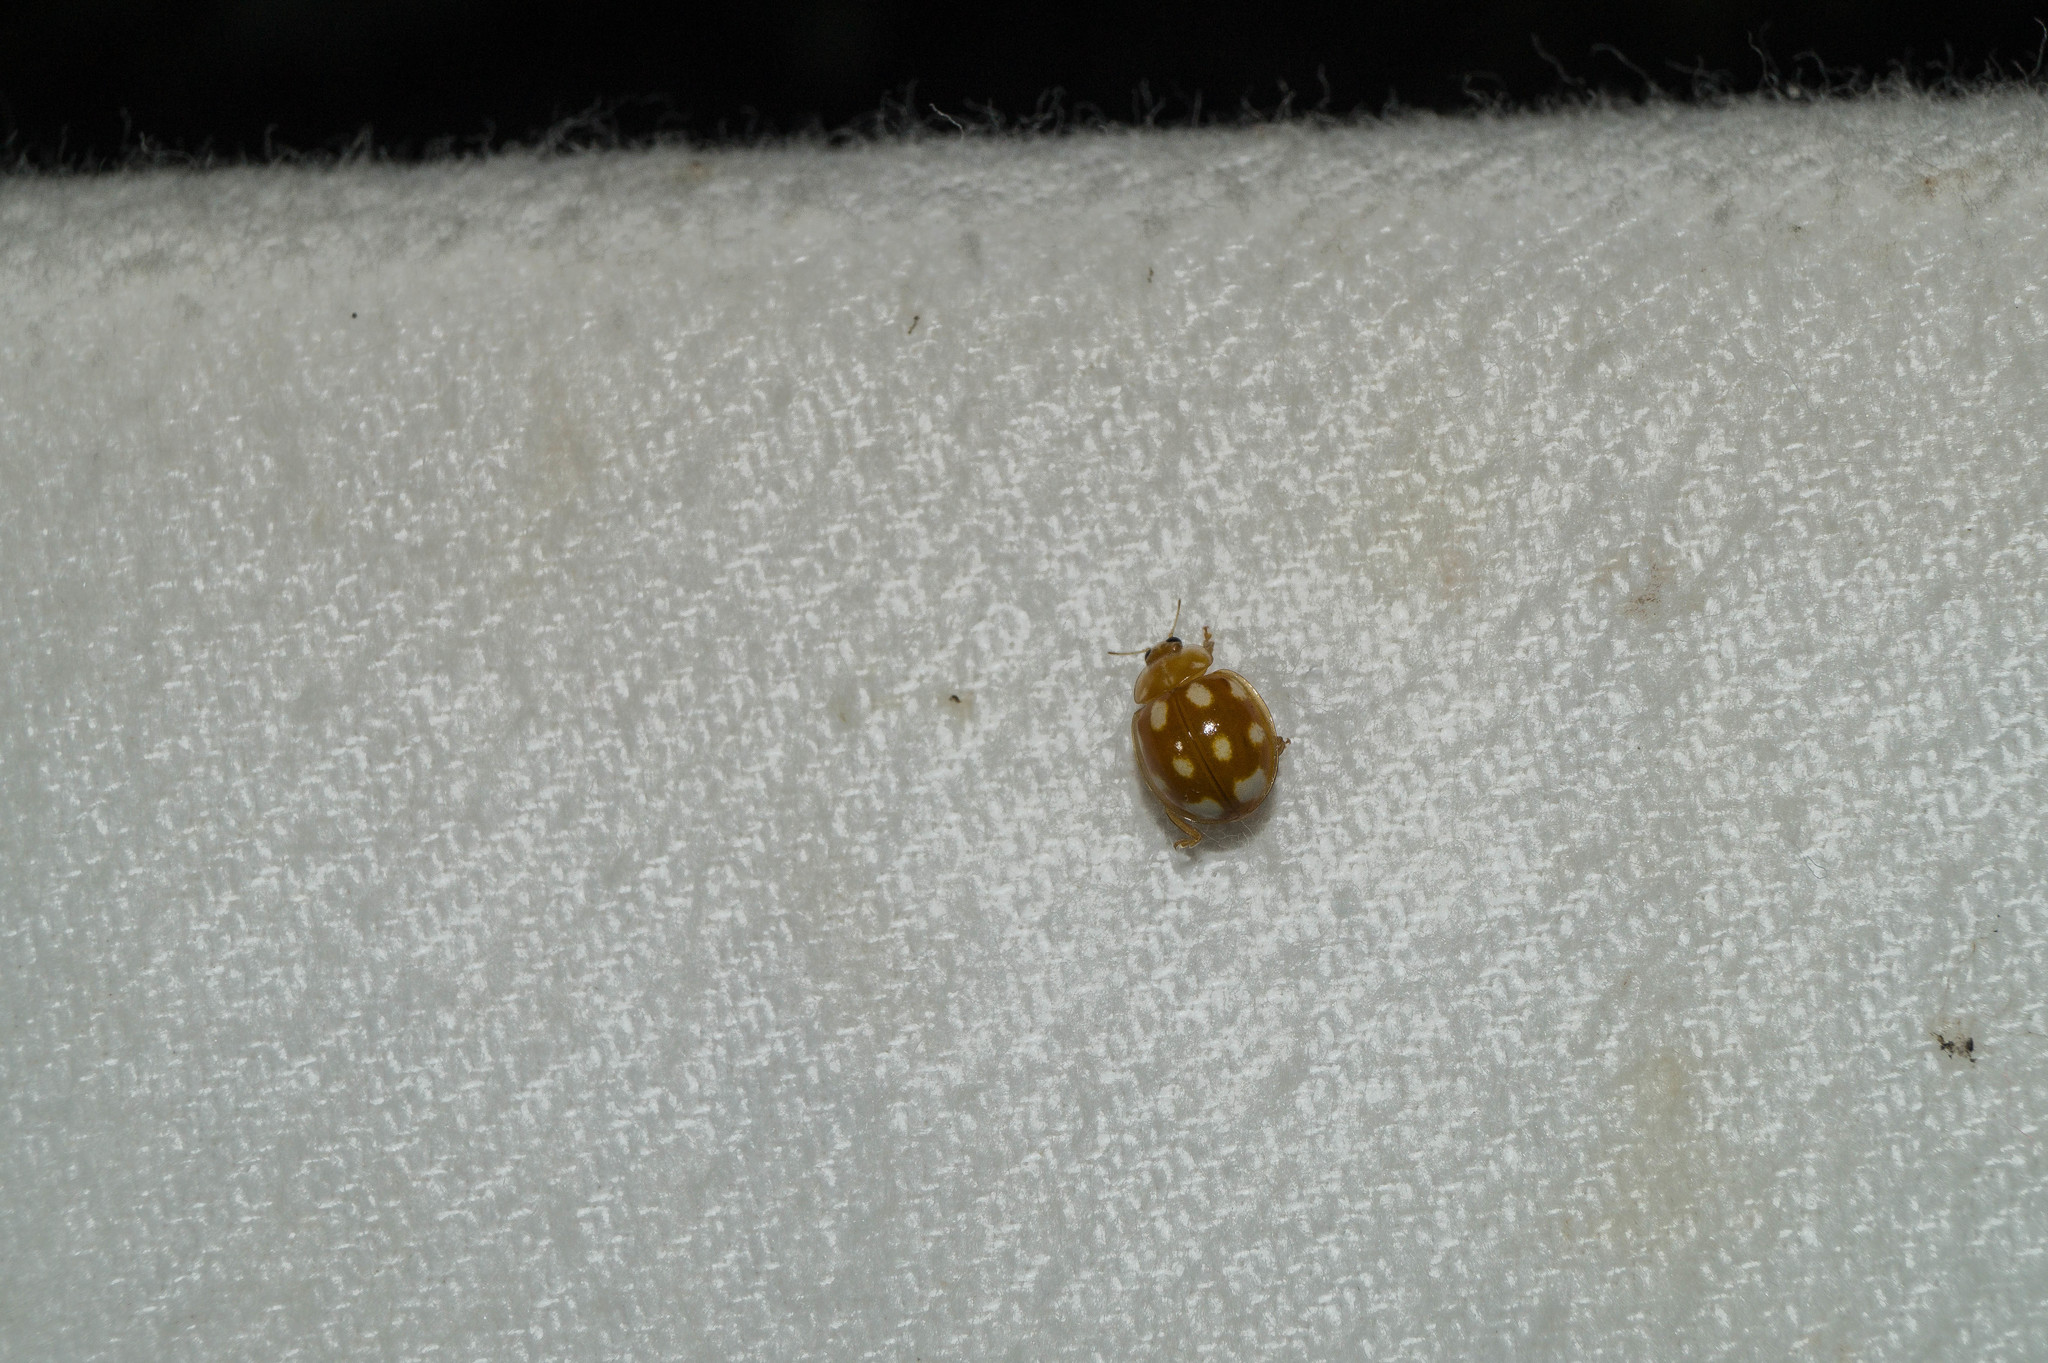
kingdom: Animalia
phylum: Arthropoda
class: Insecta
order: Coleoptera
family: Coccinellidae
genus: Halyzia
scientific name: Halyzia sedecimguttata
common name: Orange ladybird
